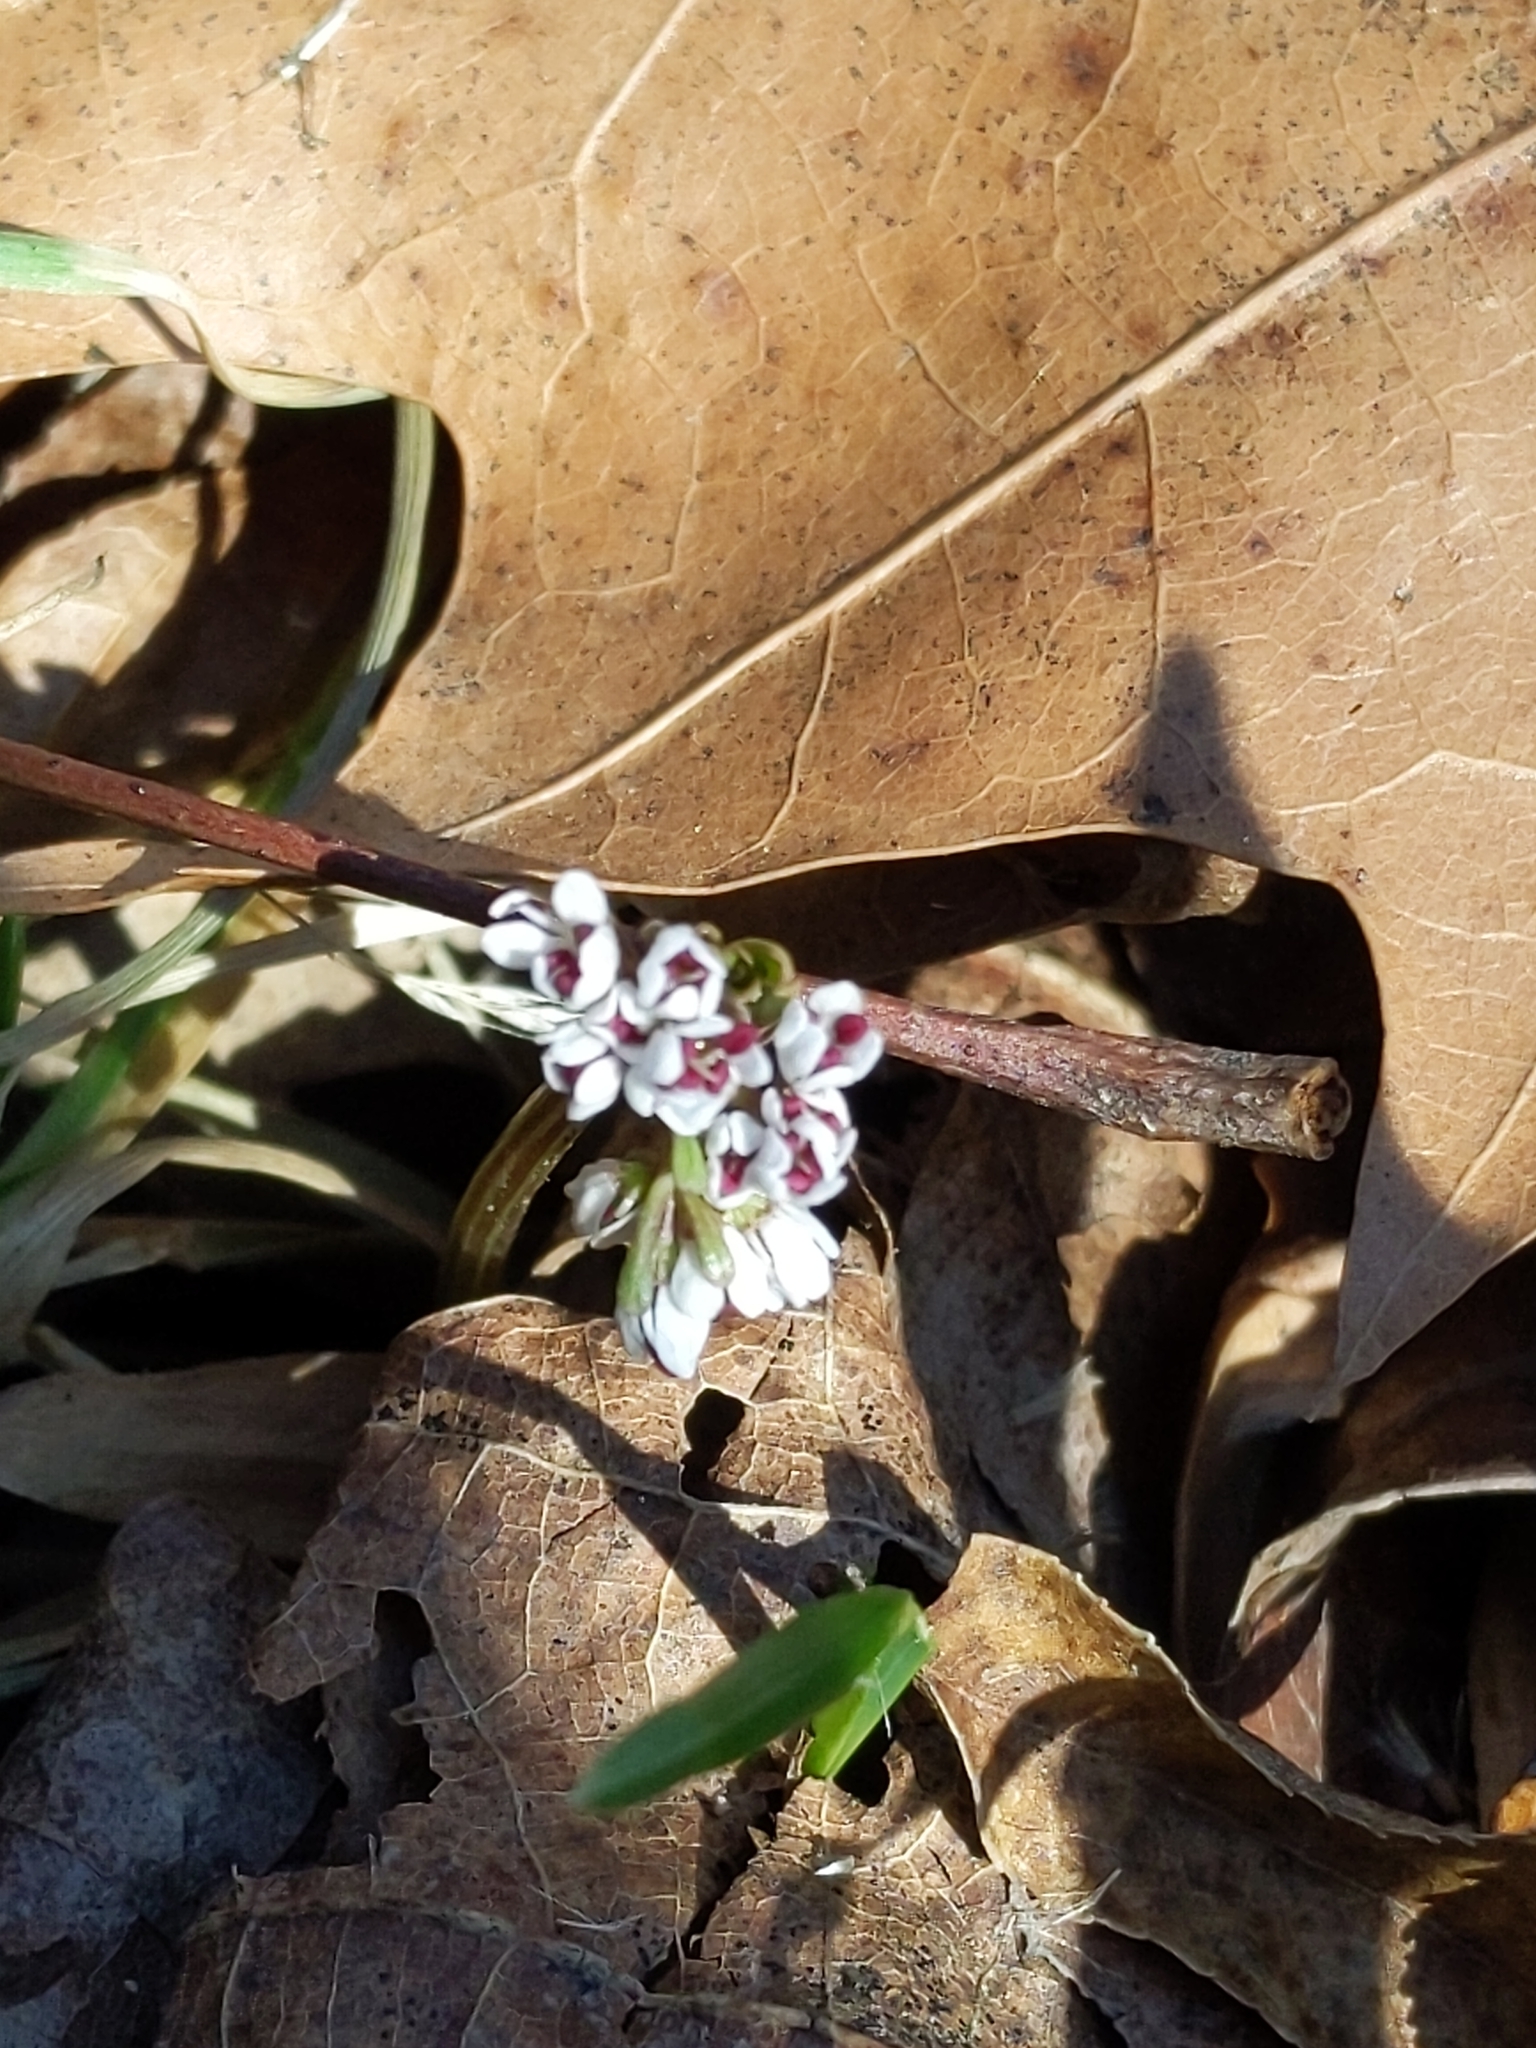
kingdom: Plantae
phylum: Tracheophyta
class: Magnoliopsida
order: Apiales
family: Apiaceae
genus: Erigenia
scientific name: Erigenia bulbosa
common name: Pepper-and-salt
